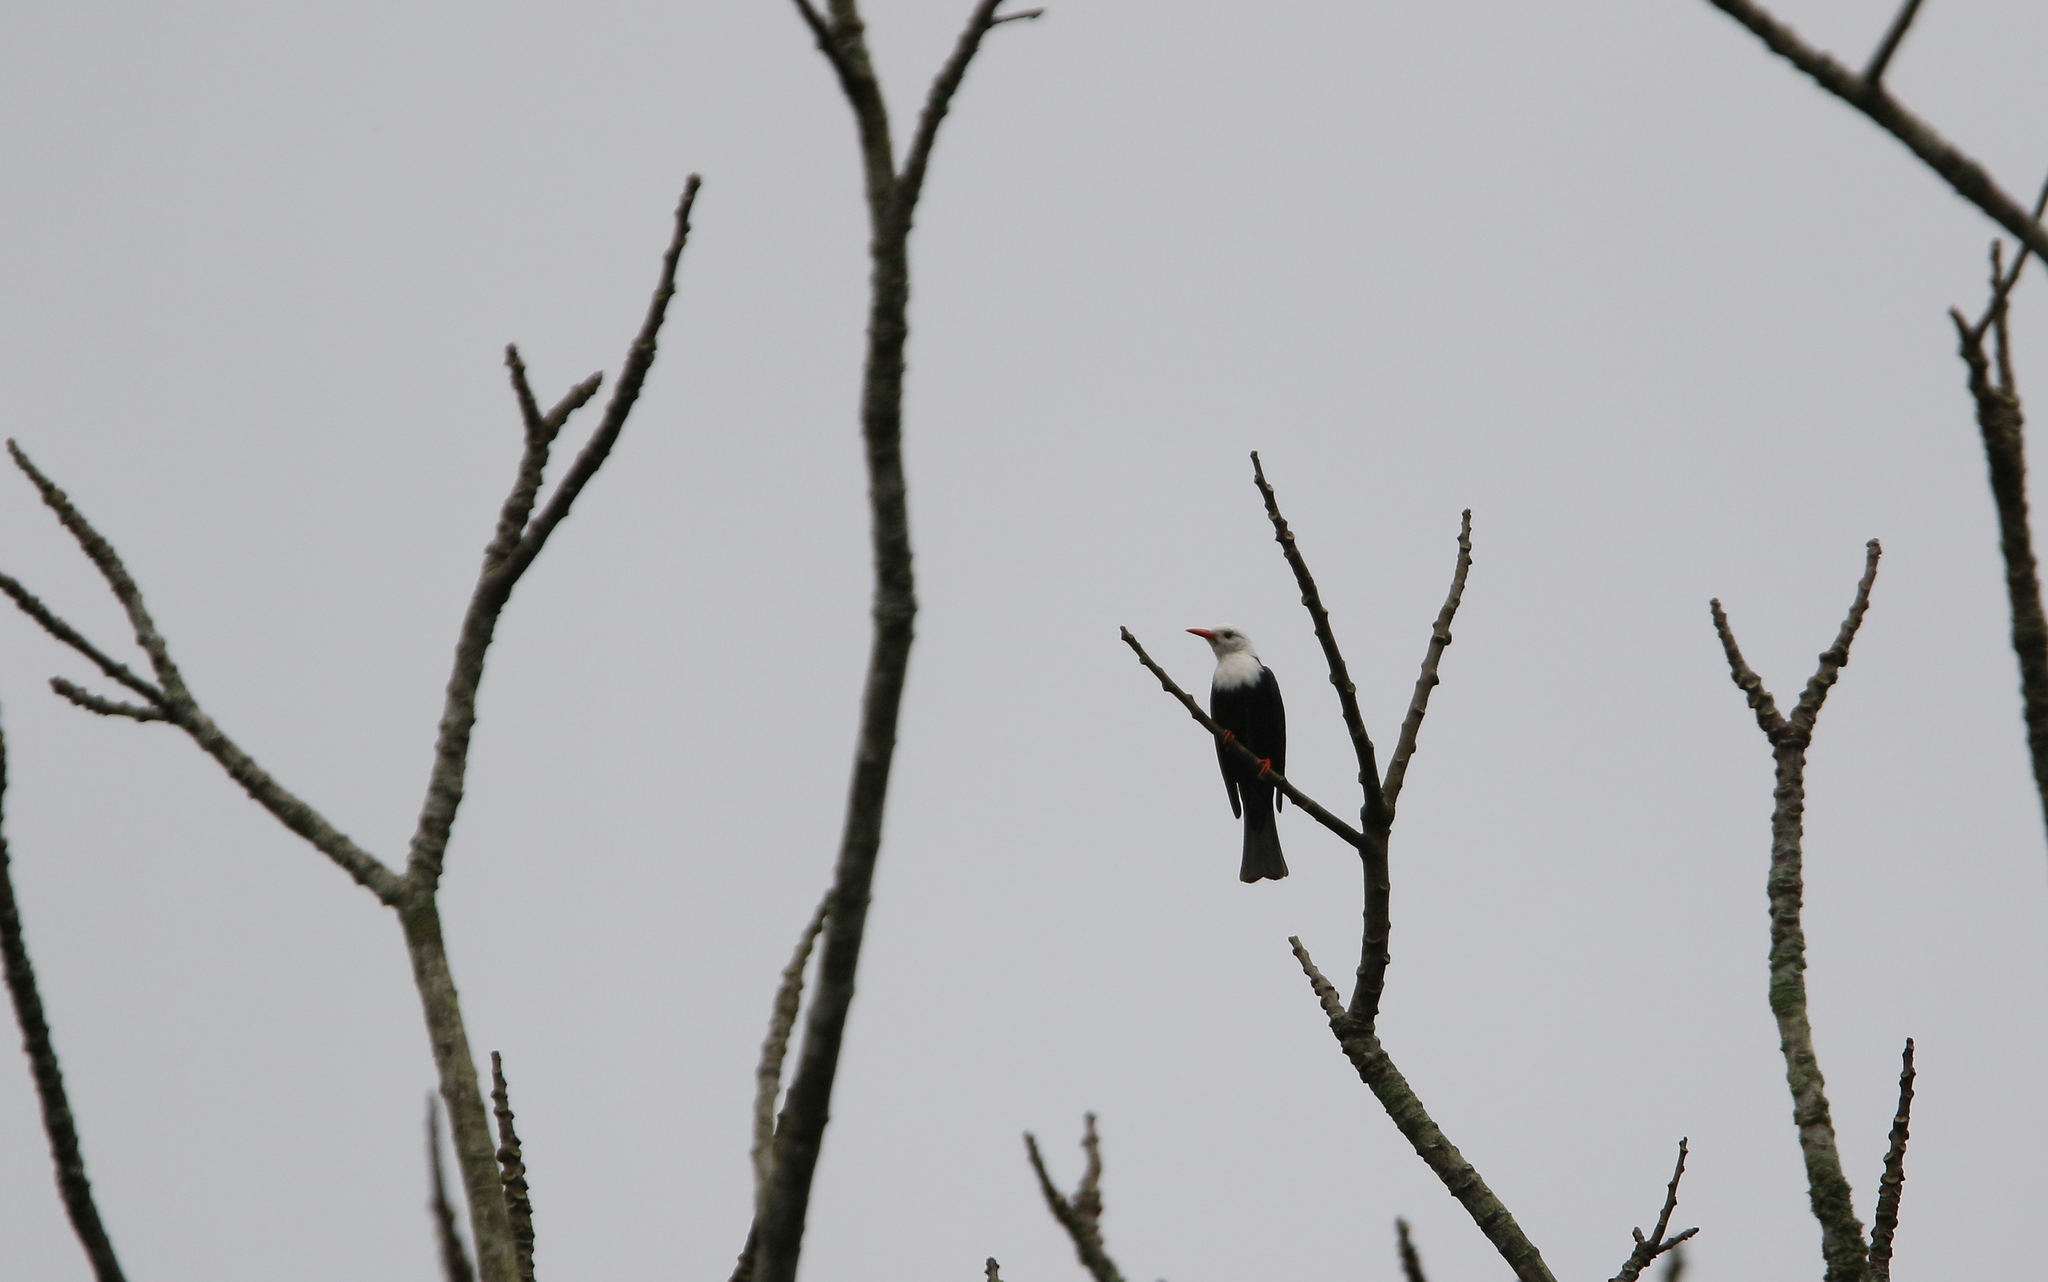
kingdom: Animalia
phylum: Chordata
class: Aves
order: Passeriformes
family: Pycnonotidae
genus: Hypsipetes
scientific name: Hypsipetes leucocephalus
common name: Black bulbul
